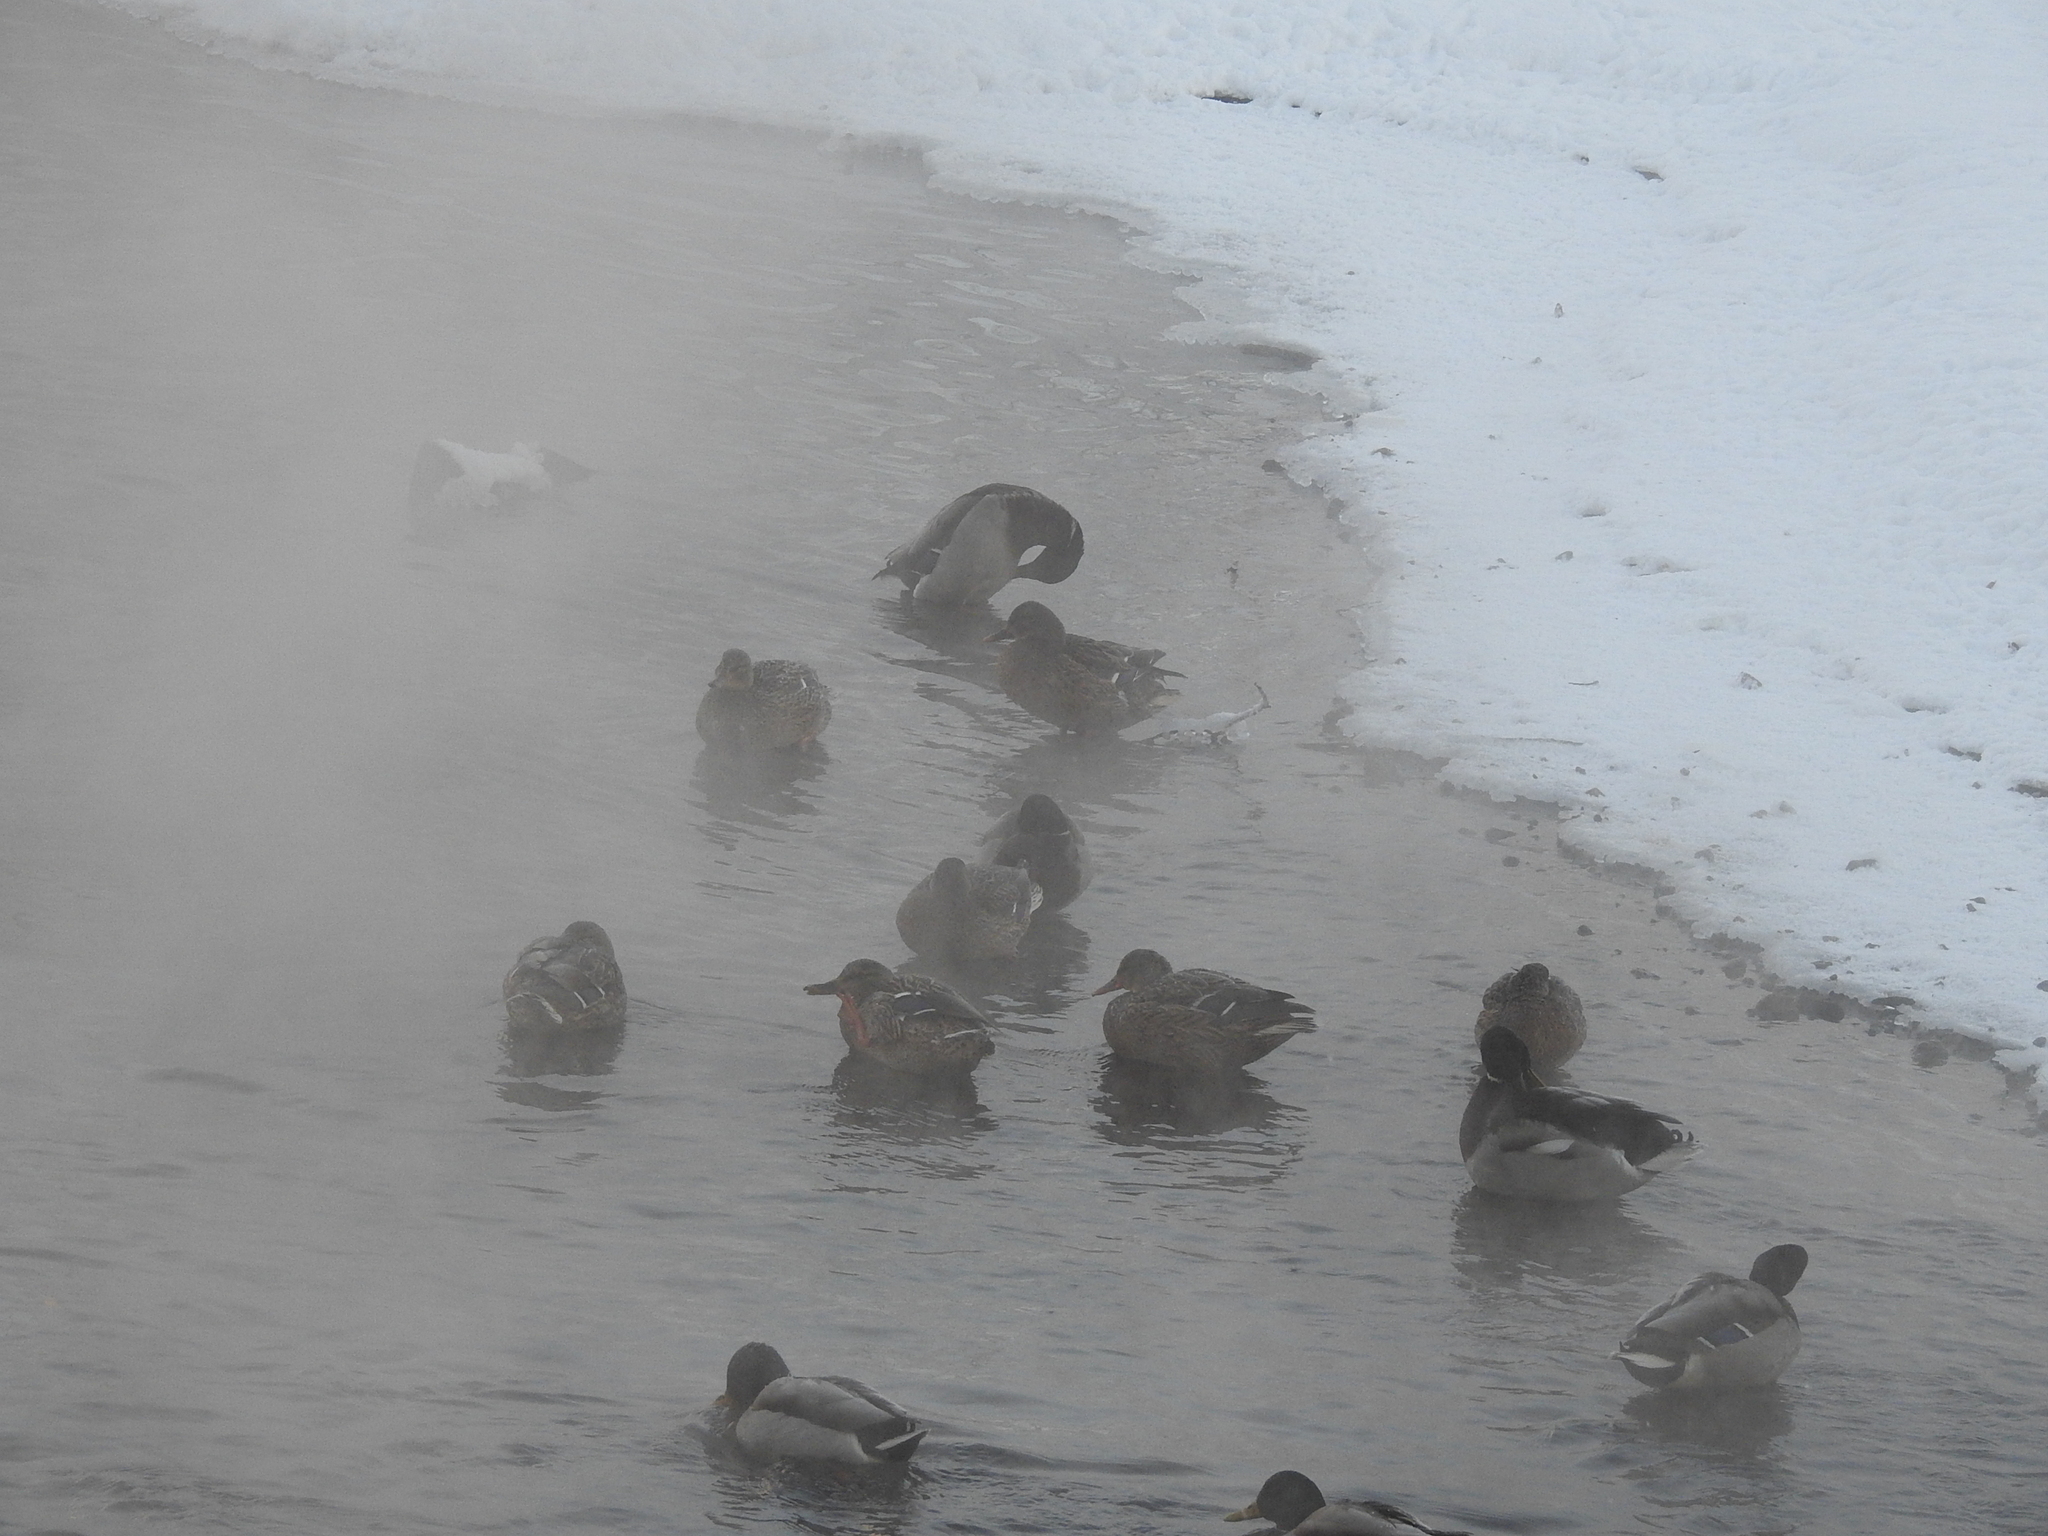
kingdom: Animalia
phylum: Chordata
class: Aves
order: Anseriformes
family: Anatidae
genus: Anas
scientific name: Anas platyrhynchos
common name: Mallard
